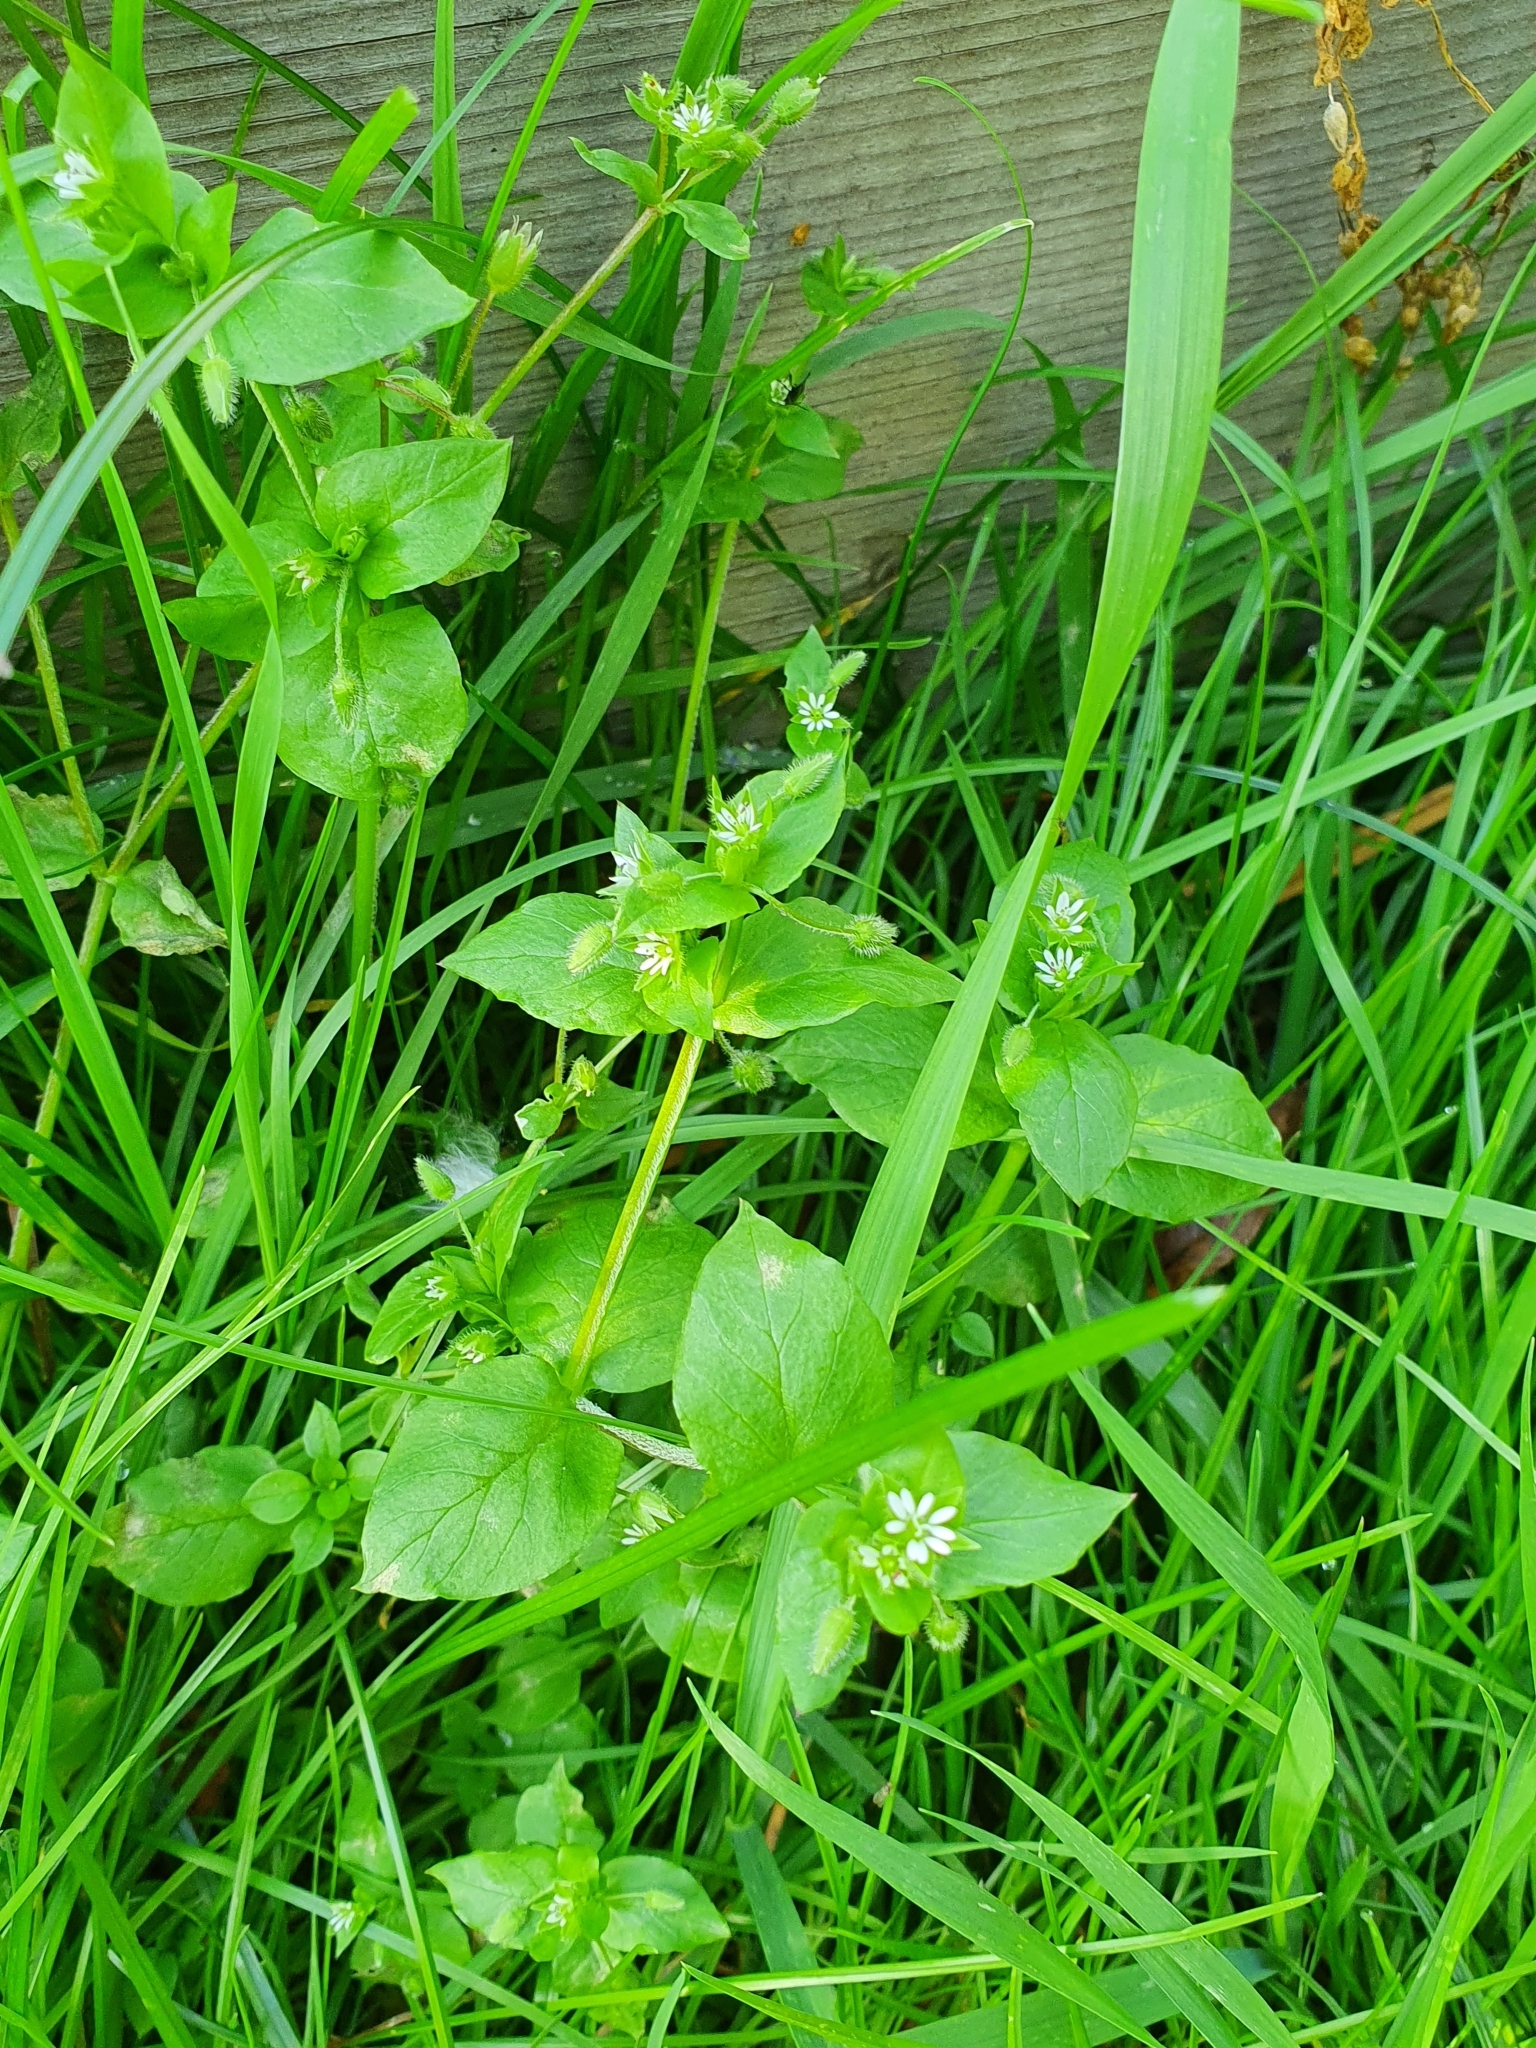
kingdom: Plantae
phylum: Tracheophyta
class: Magnoliopsida
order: Caryophyllales
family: Caryophyllaceae
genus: Stellaria
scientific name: Stellaria media
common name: Common chickweed
